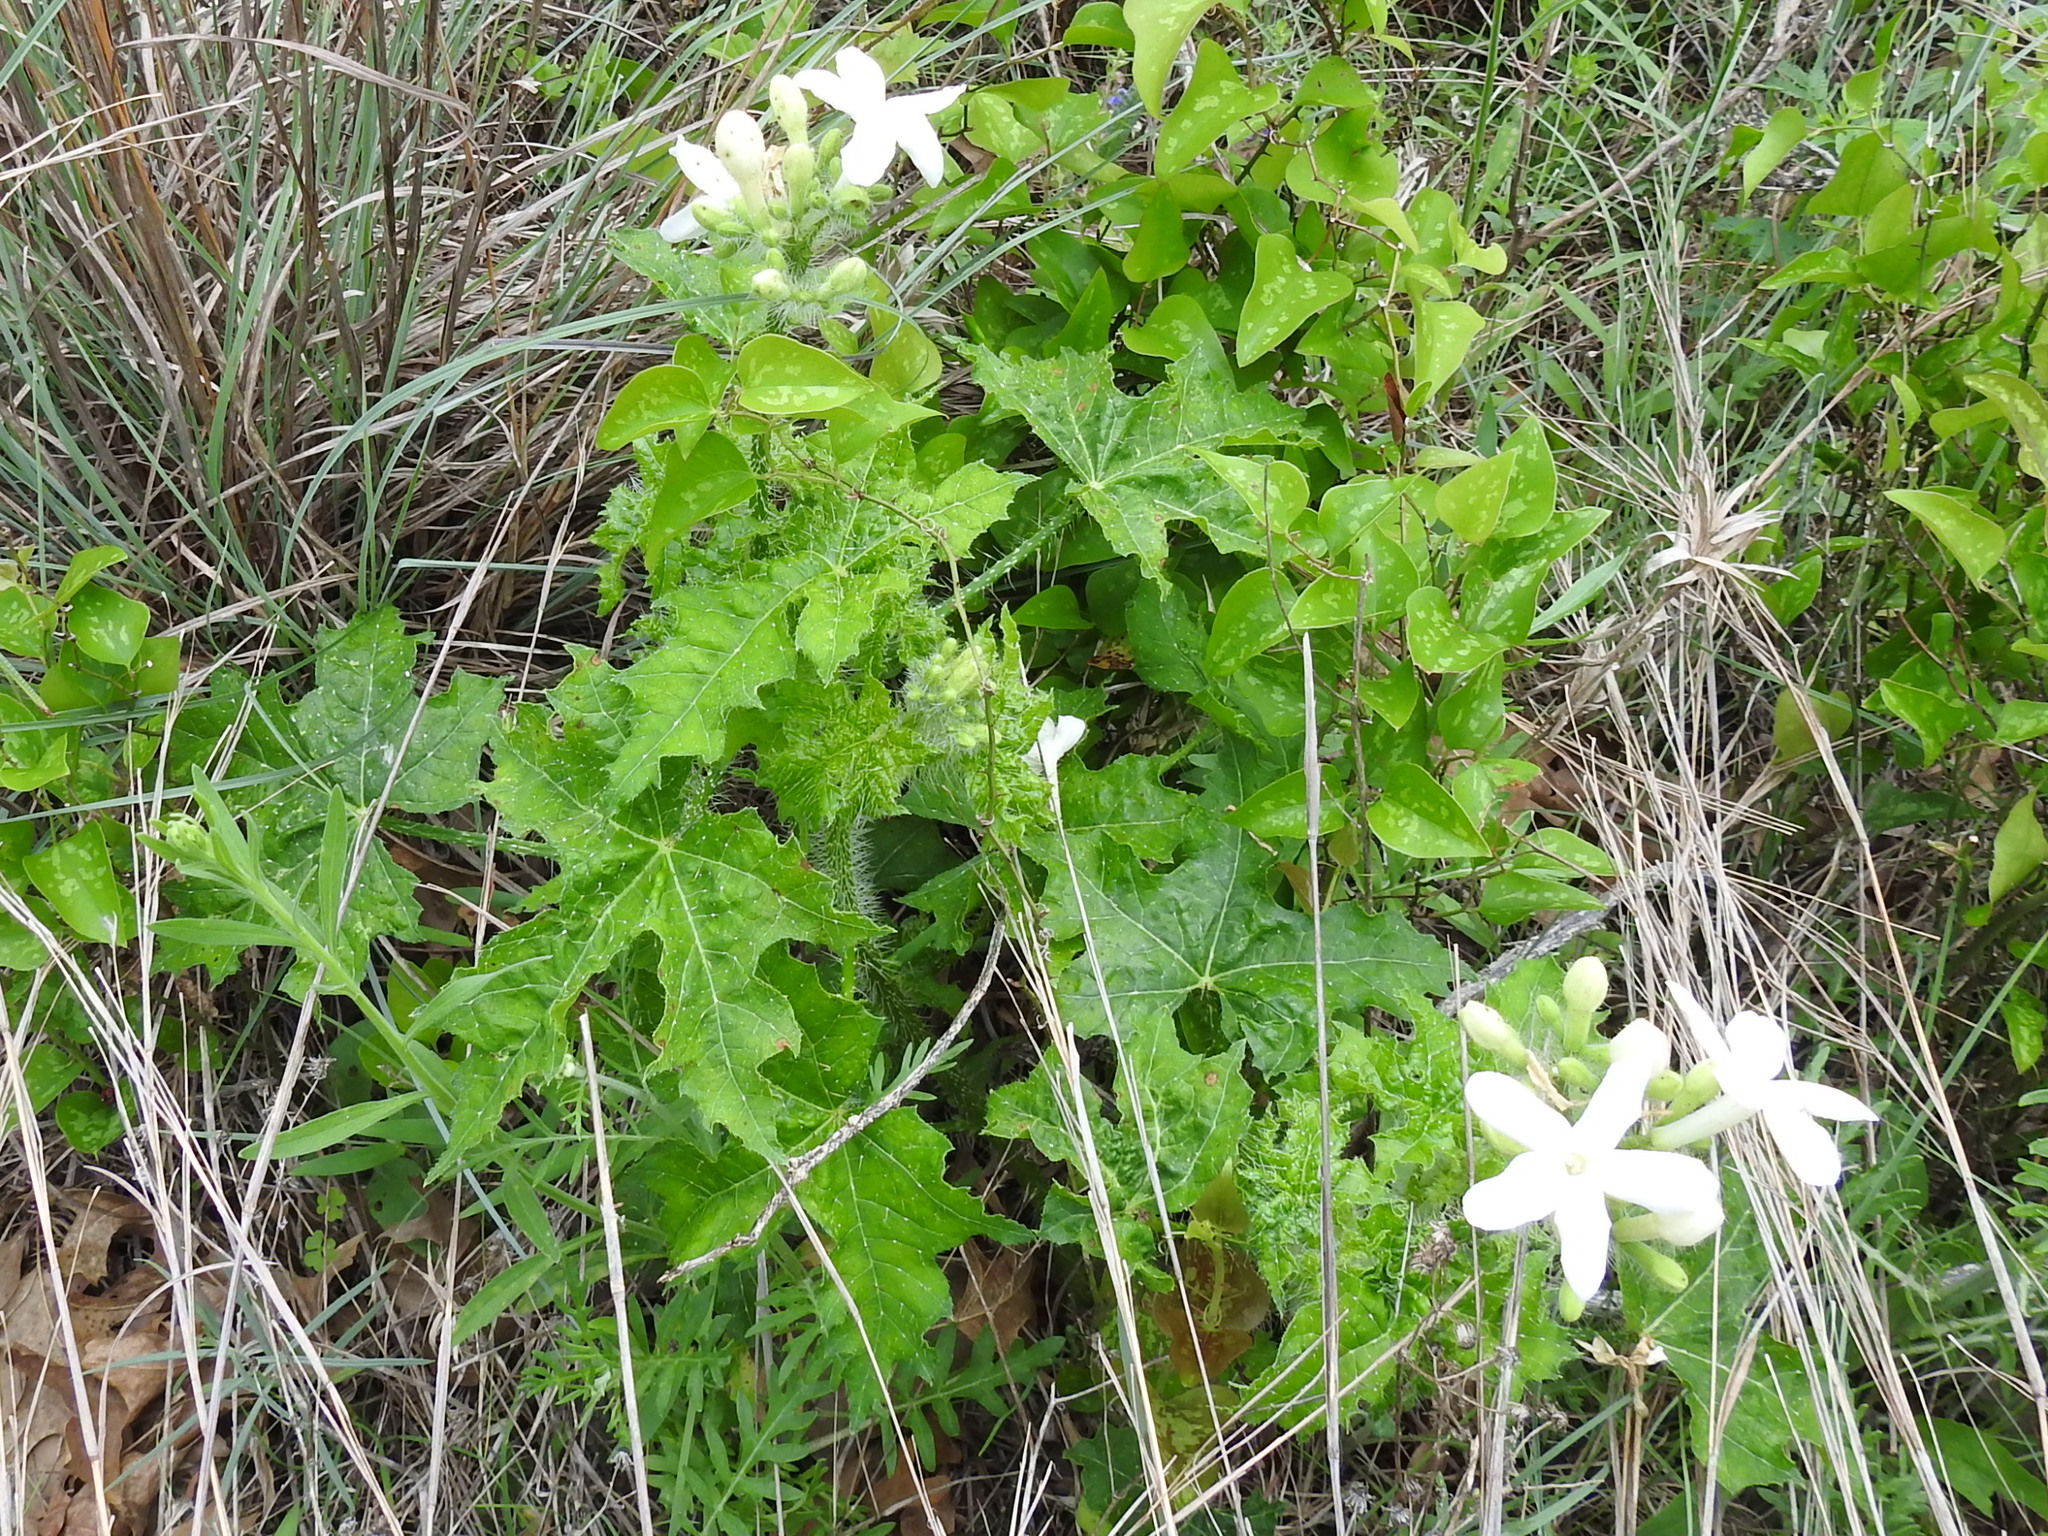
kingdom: Plantae
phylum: Tracheophyta
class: Magnoliopsida
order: Malpighiales
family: Euphorbiaceae
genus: Cnidoscolus
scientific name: Cnidoscolus texanus
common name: Texas bull-nettle
